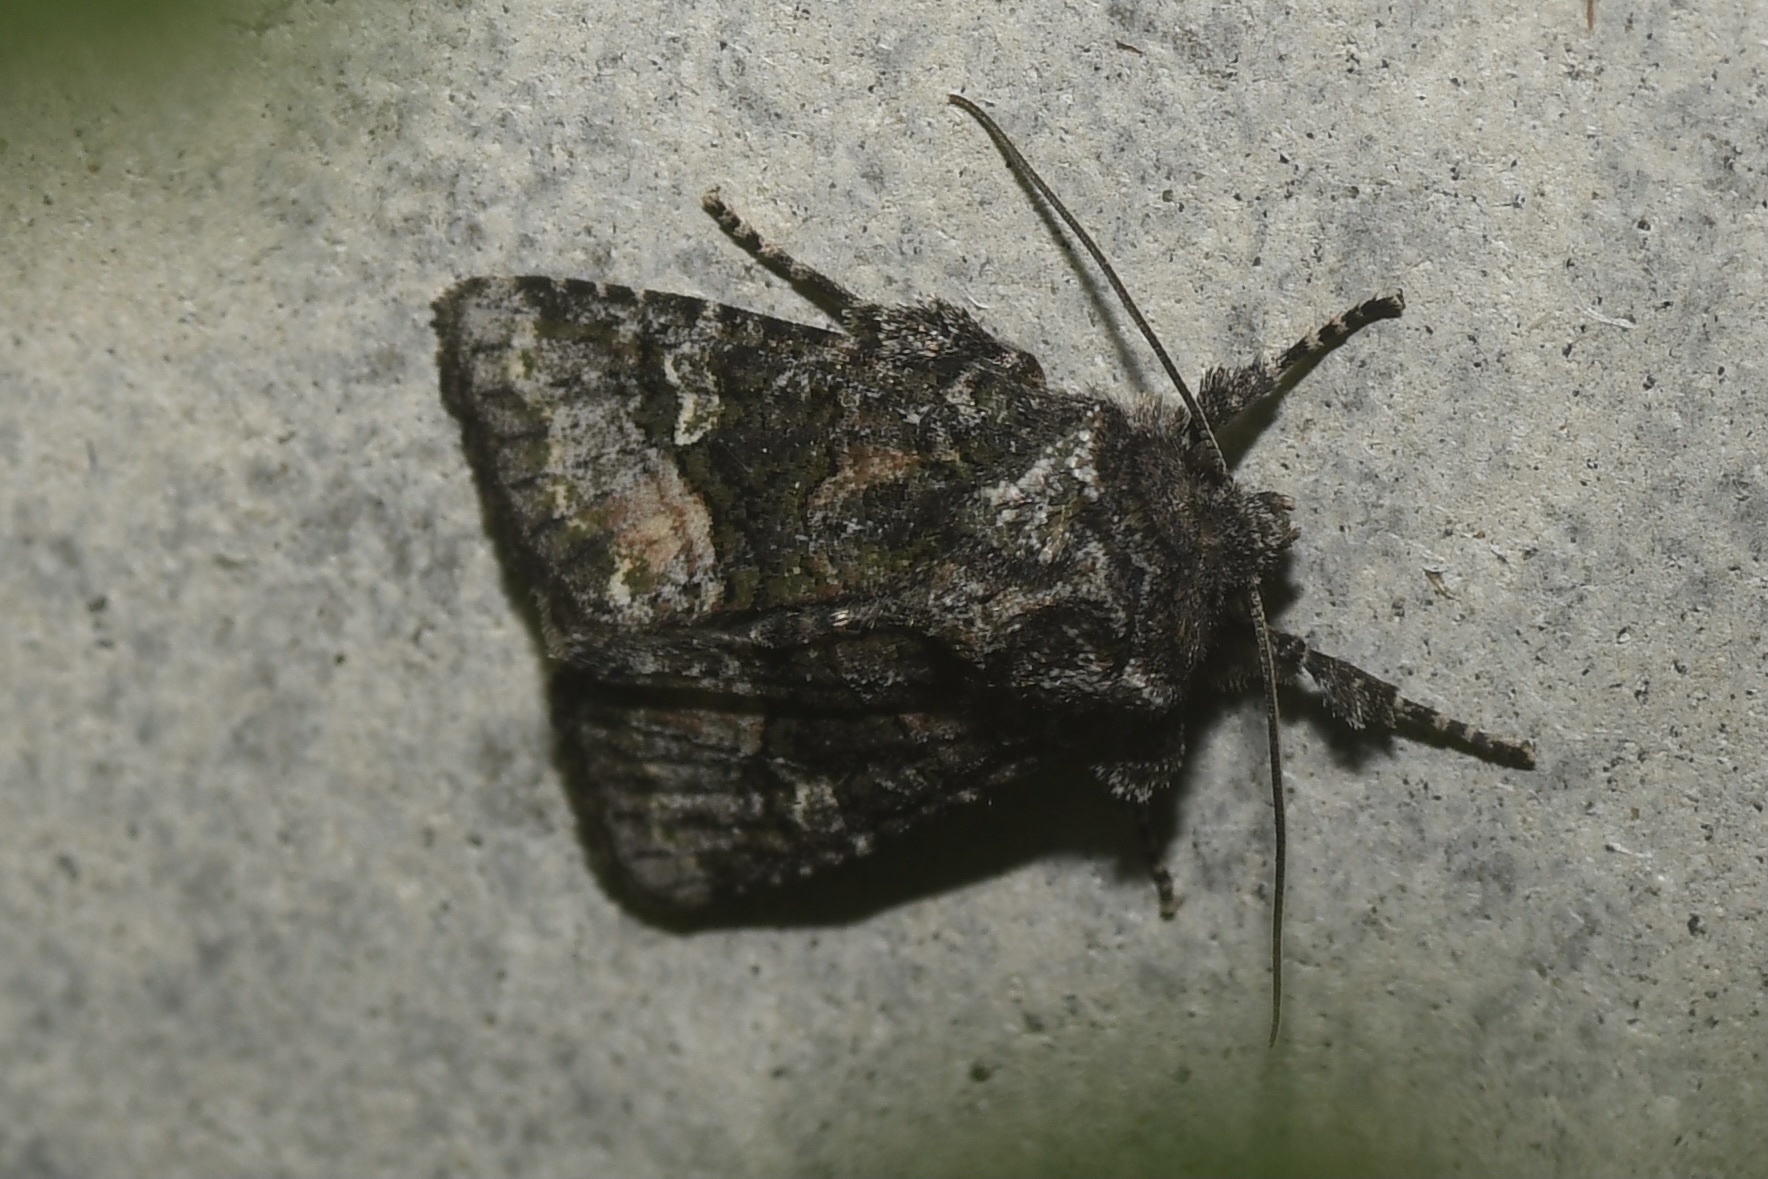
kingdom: Animalia
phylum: Arthropoda
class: Insecta
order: Lepidoptera
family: Noctuidae
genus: Lacinipolia
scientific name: Lacinipolia olivacea
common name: Olive arches moth
